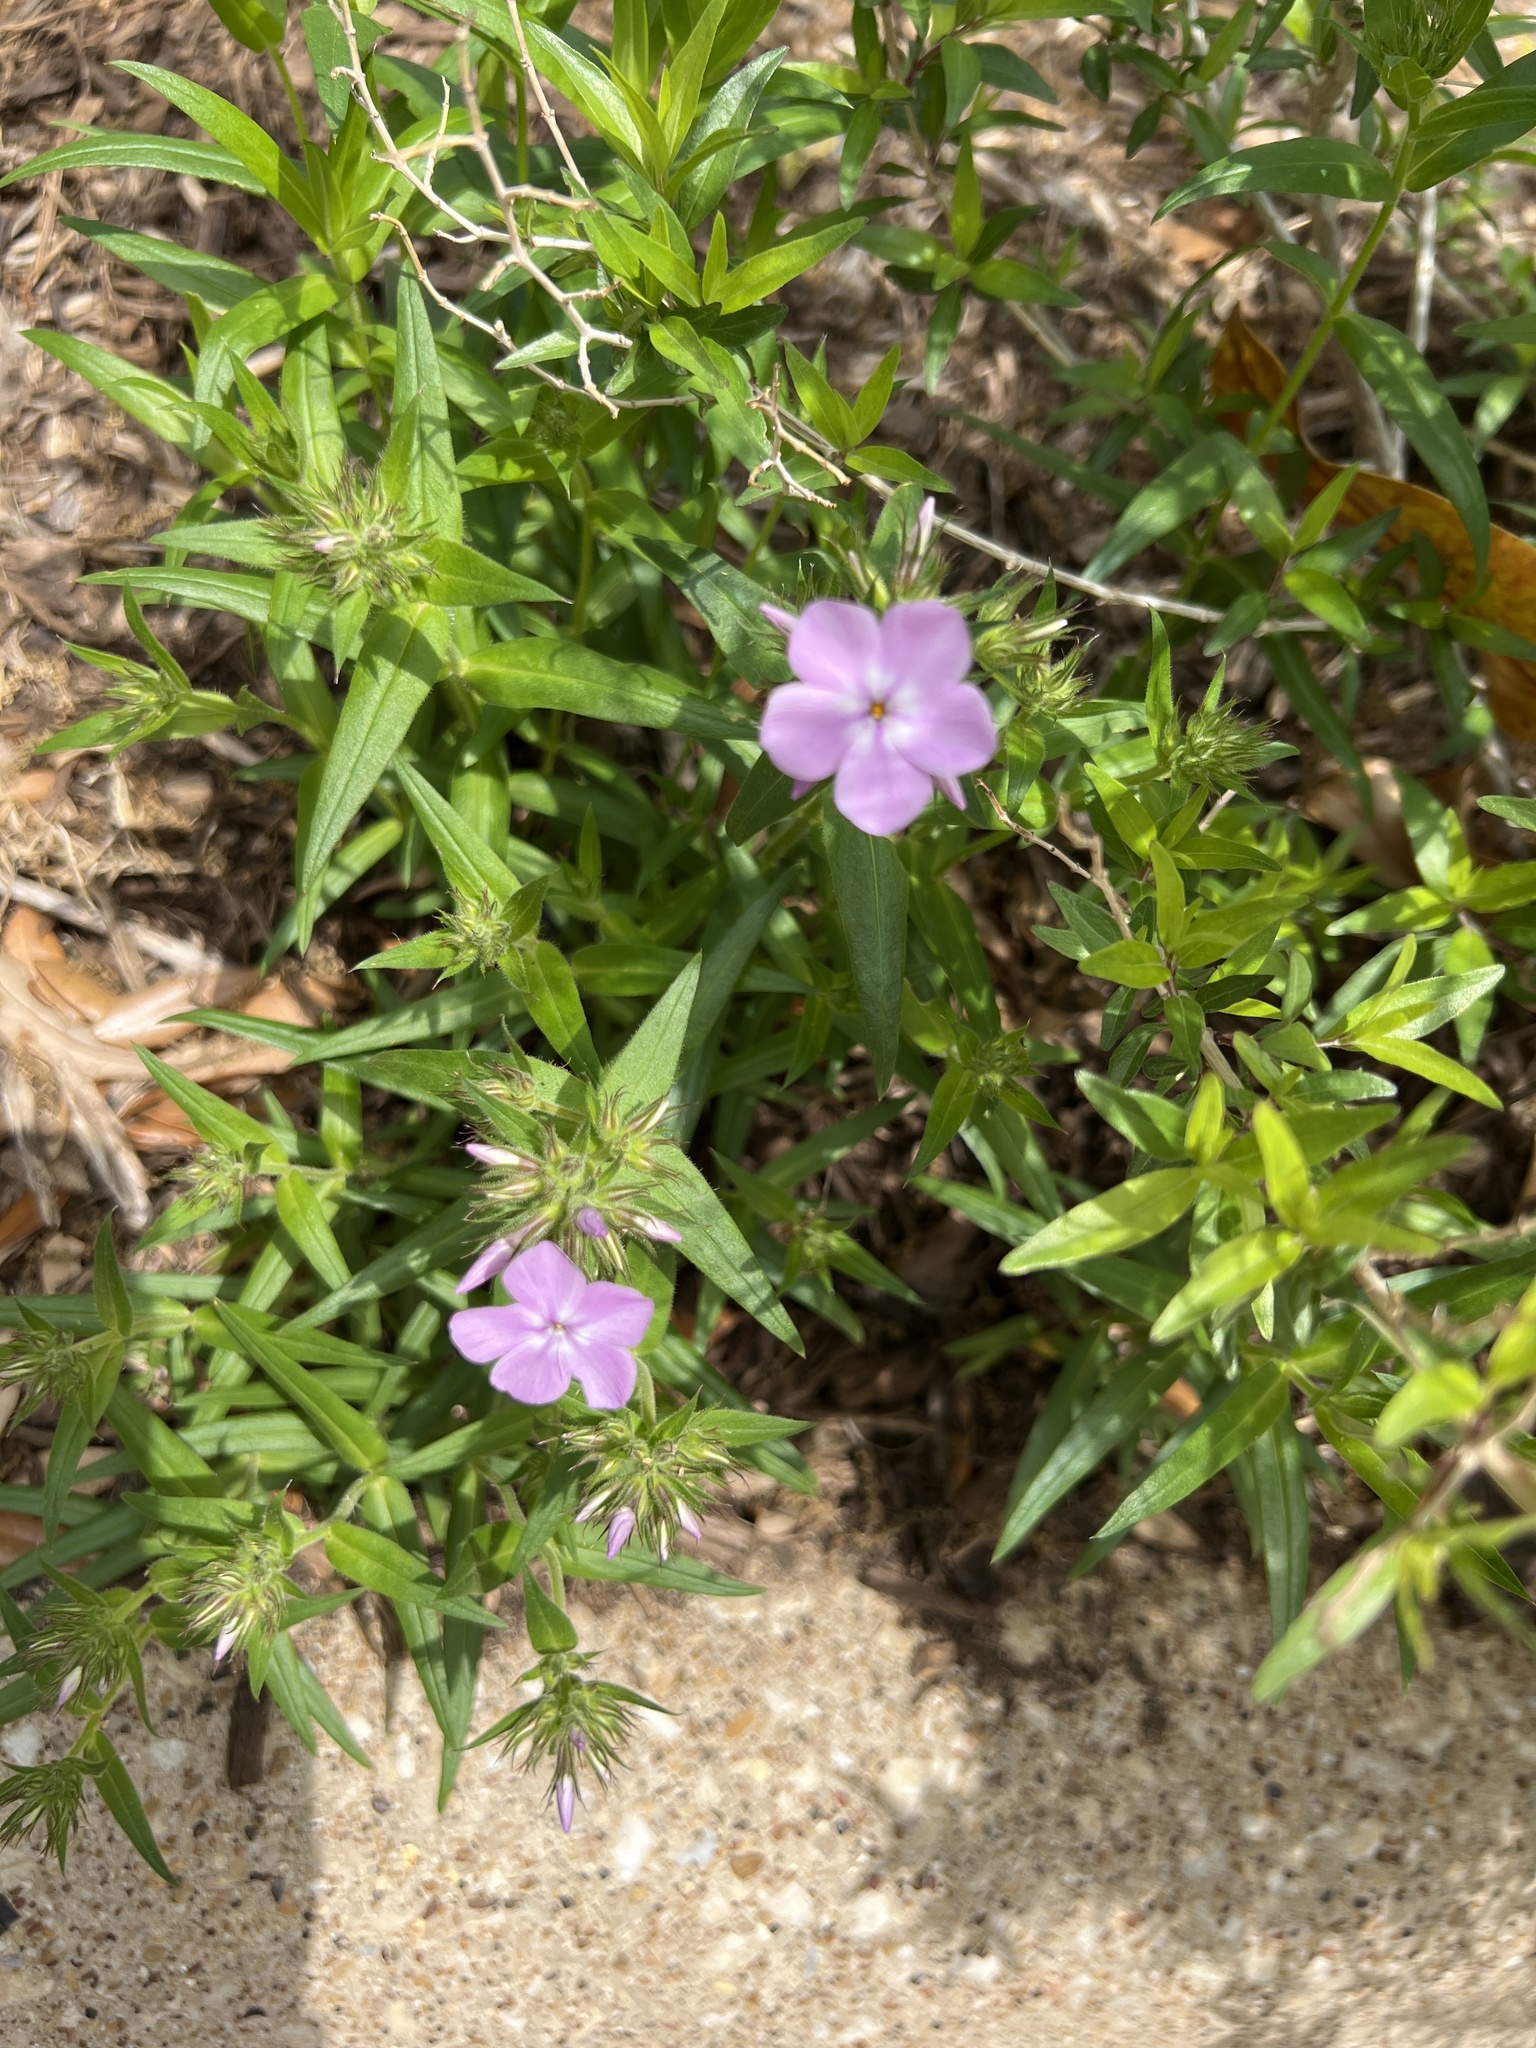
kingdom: Plantae
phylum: Tracheophyta
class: Magnoliopsida
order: Ericales
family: Polemoniaceae
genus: Phlox
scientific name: Phlox pilosa
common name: Prairie phlox
